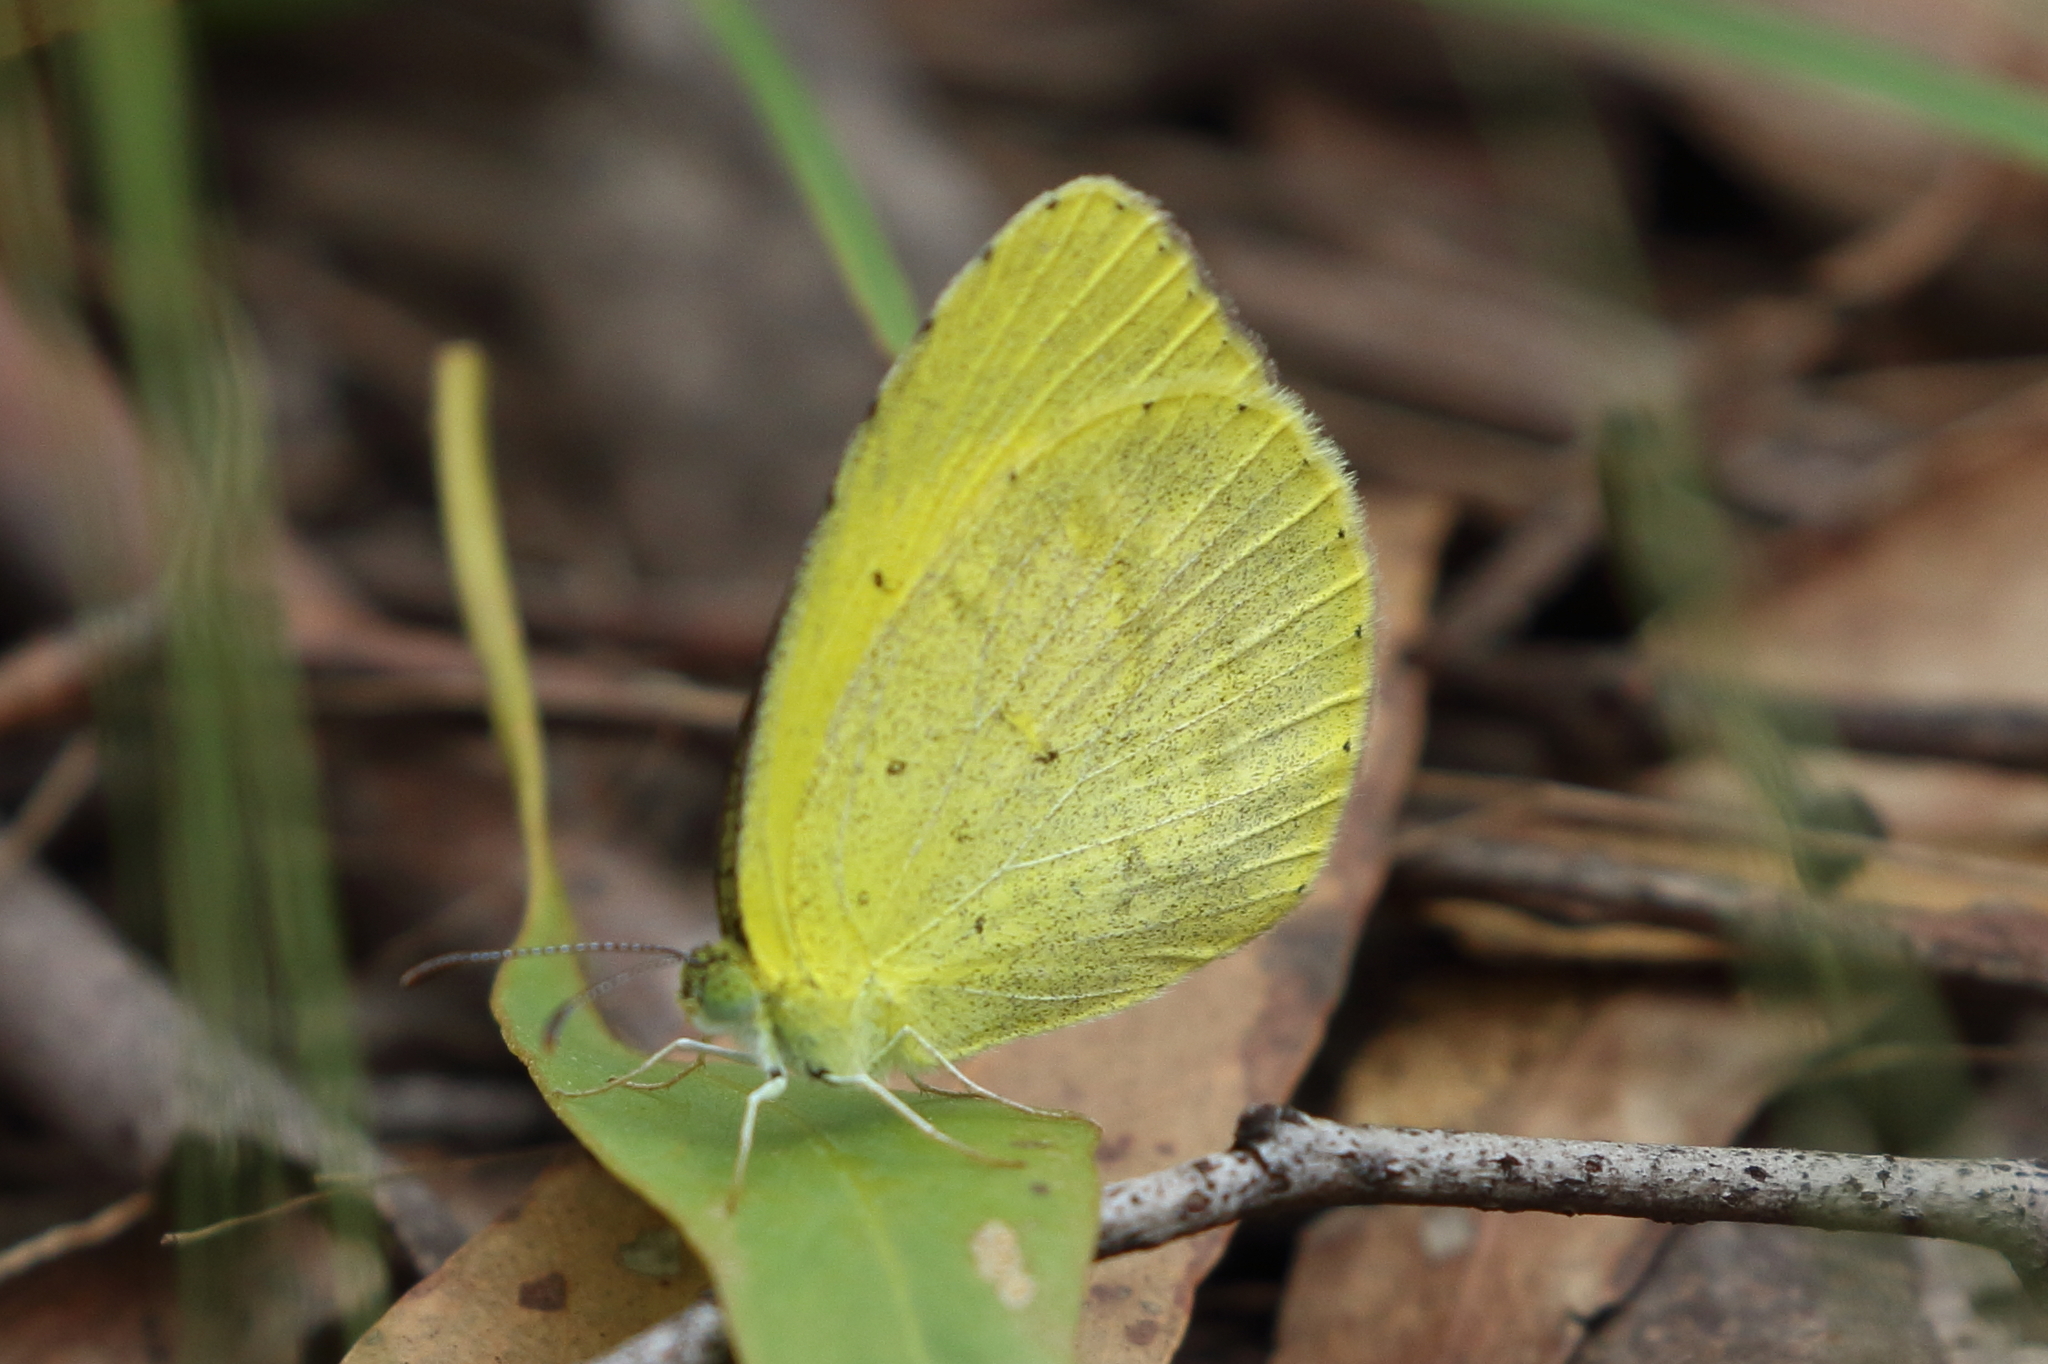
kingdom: Animalia
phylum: Arthropoda
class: Insecta
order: Lepidoptera
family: Pieridae
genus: Eurema
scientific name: Eurema brigitta
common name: Small grass yellow
